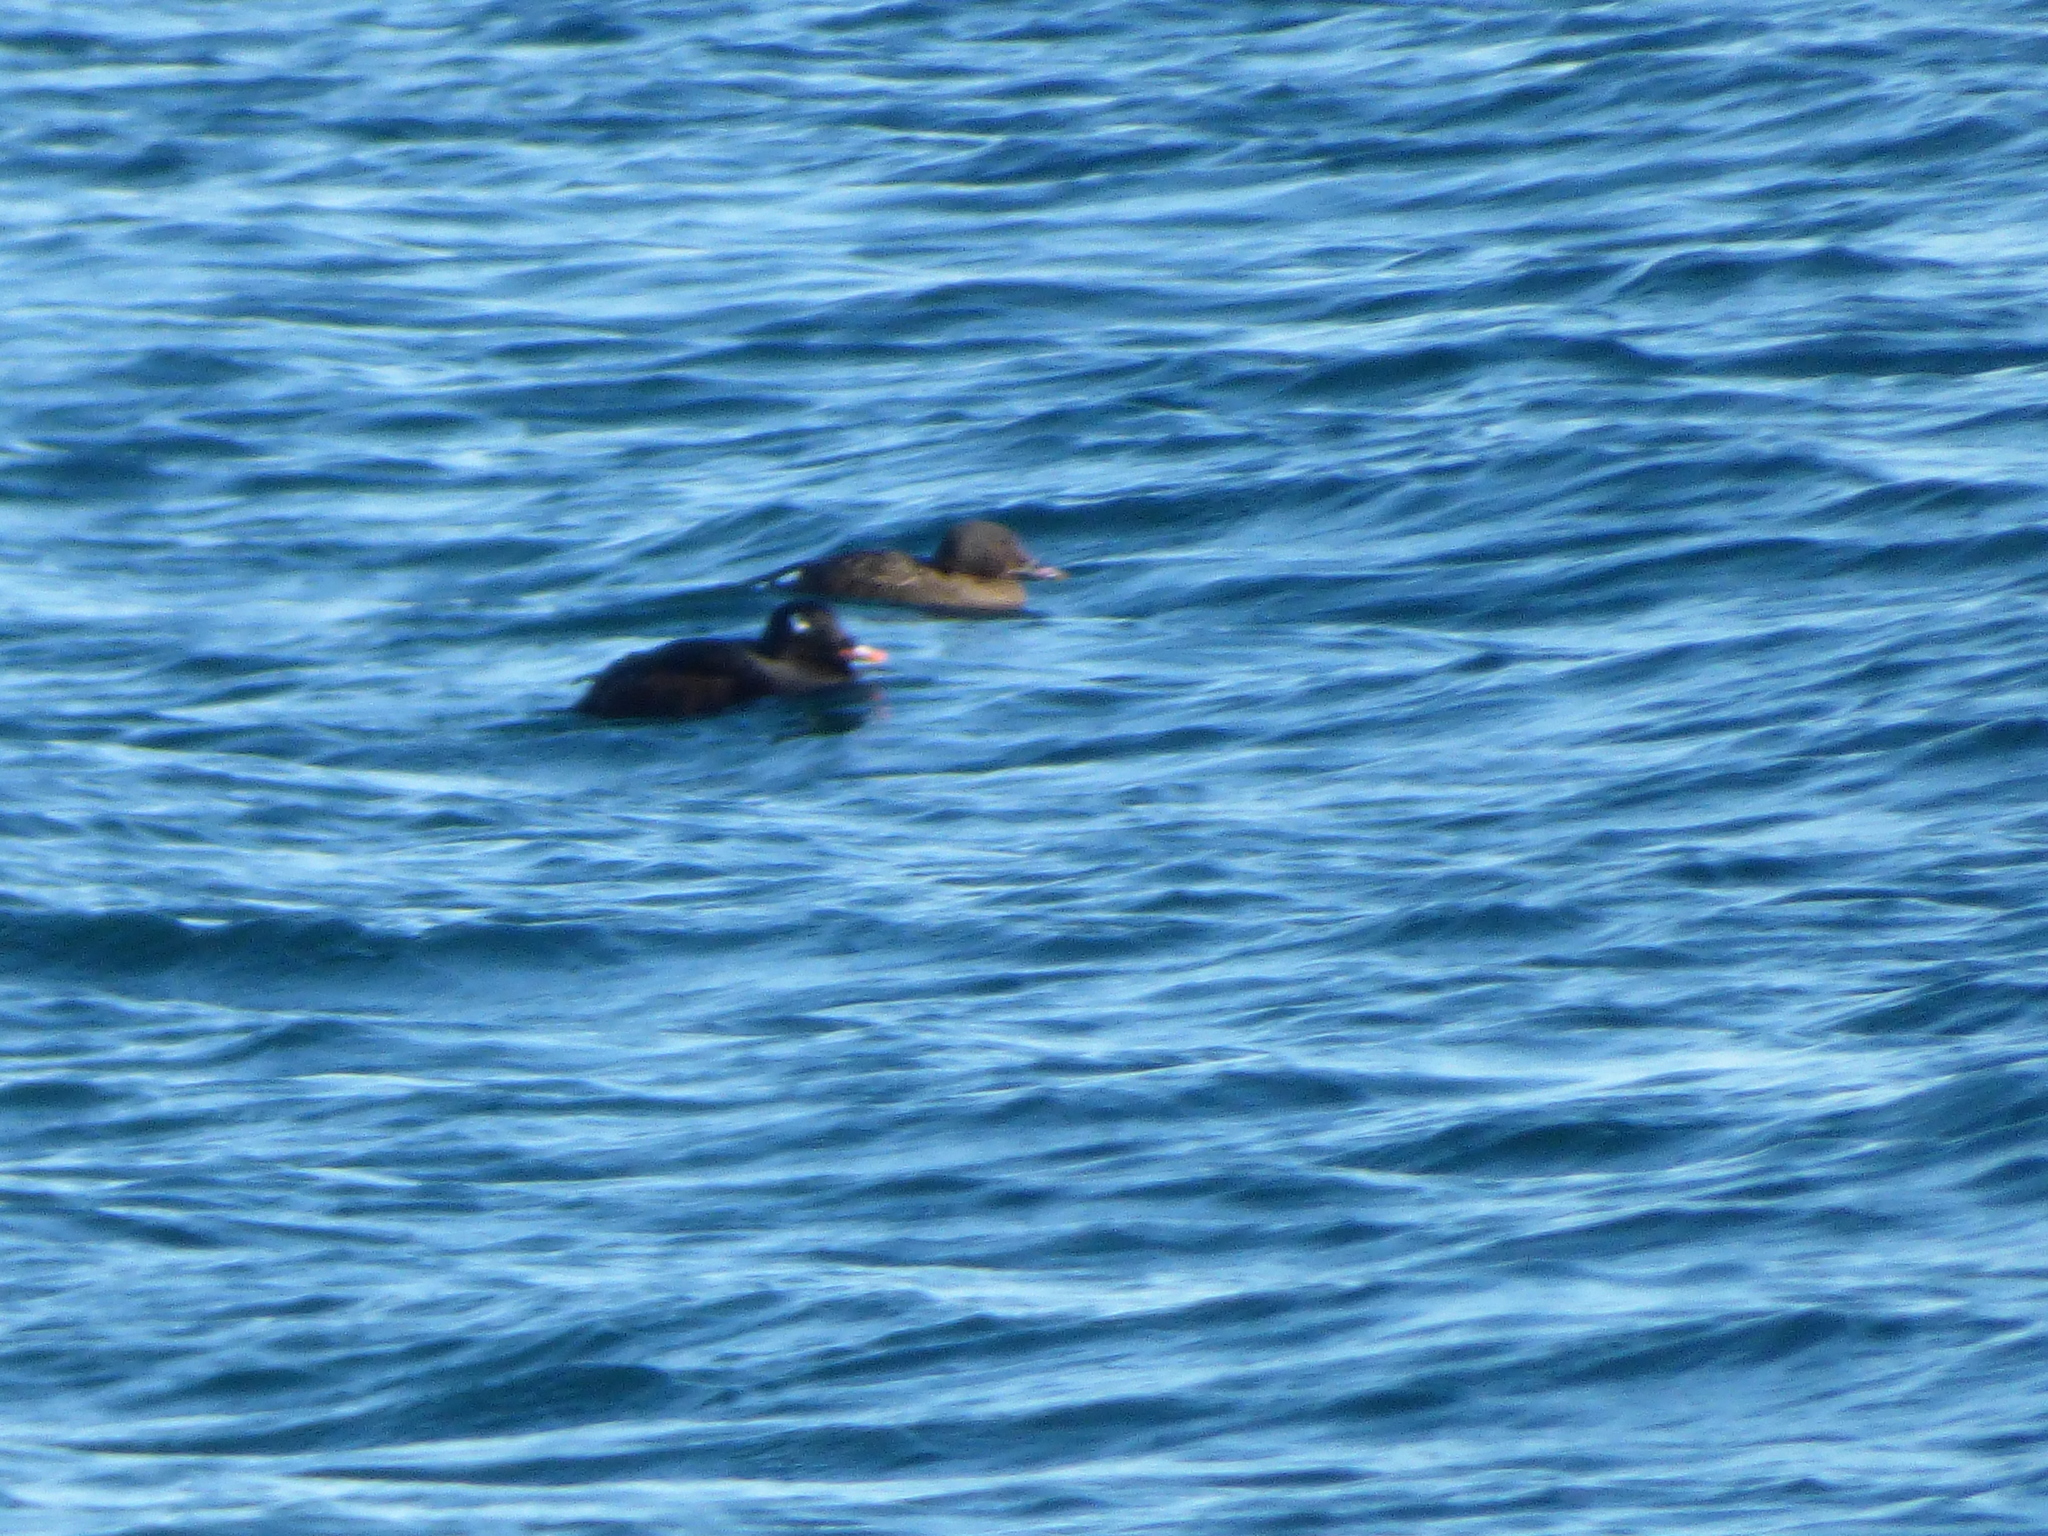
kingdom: Animalia
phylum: Chordata
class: Aves
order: Anseriformes
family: Anatidae
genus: Melanitta
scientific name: Melanitta deglandi
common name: White-winged scoter
